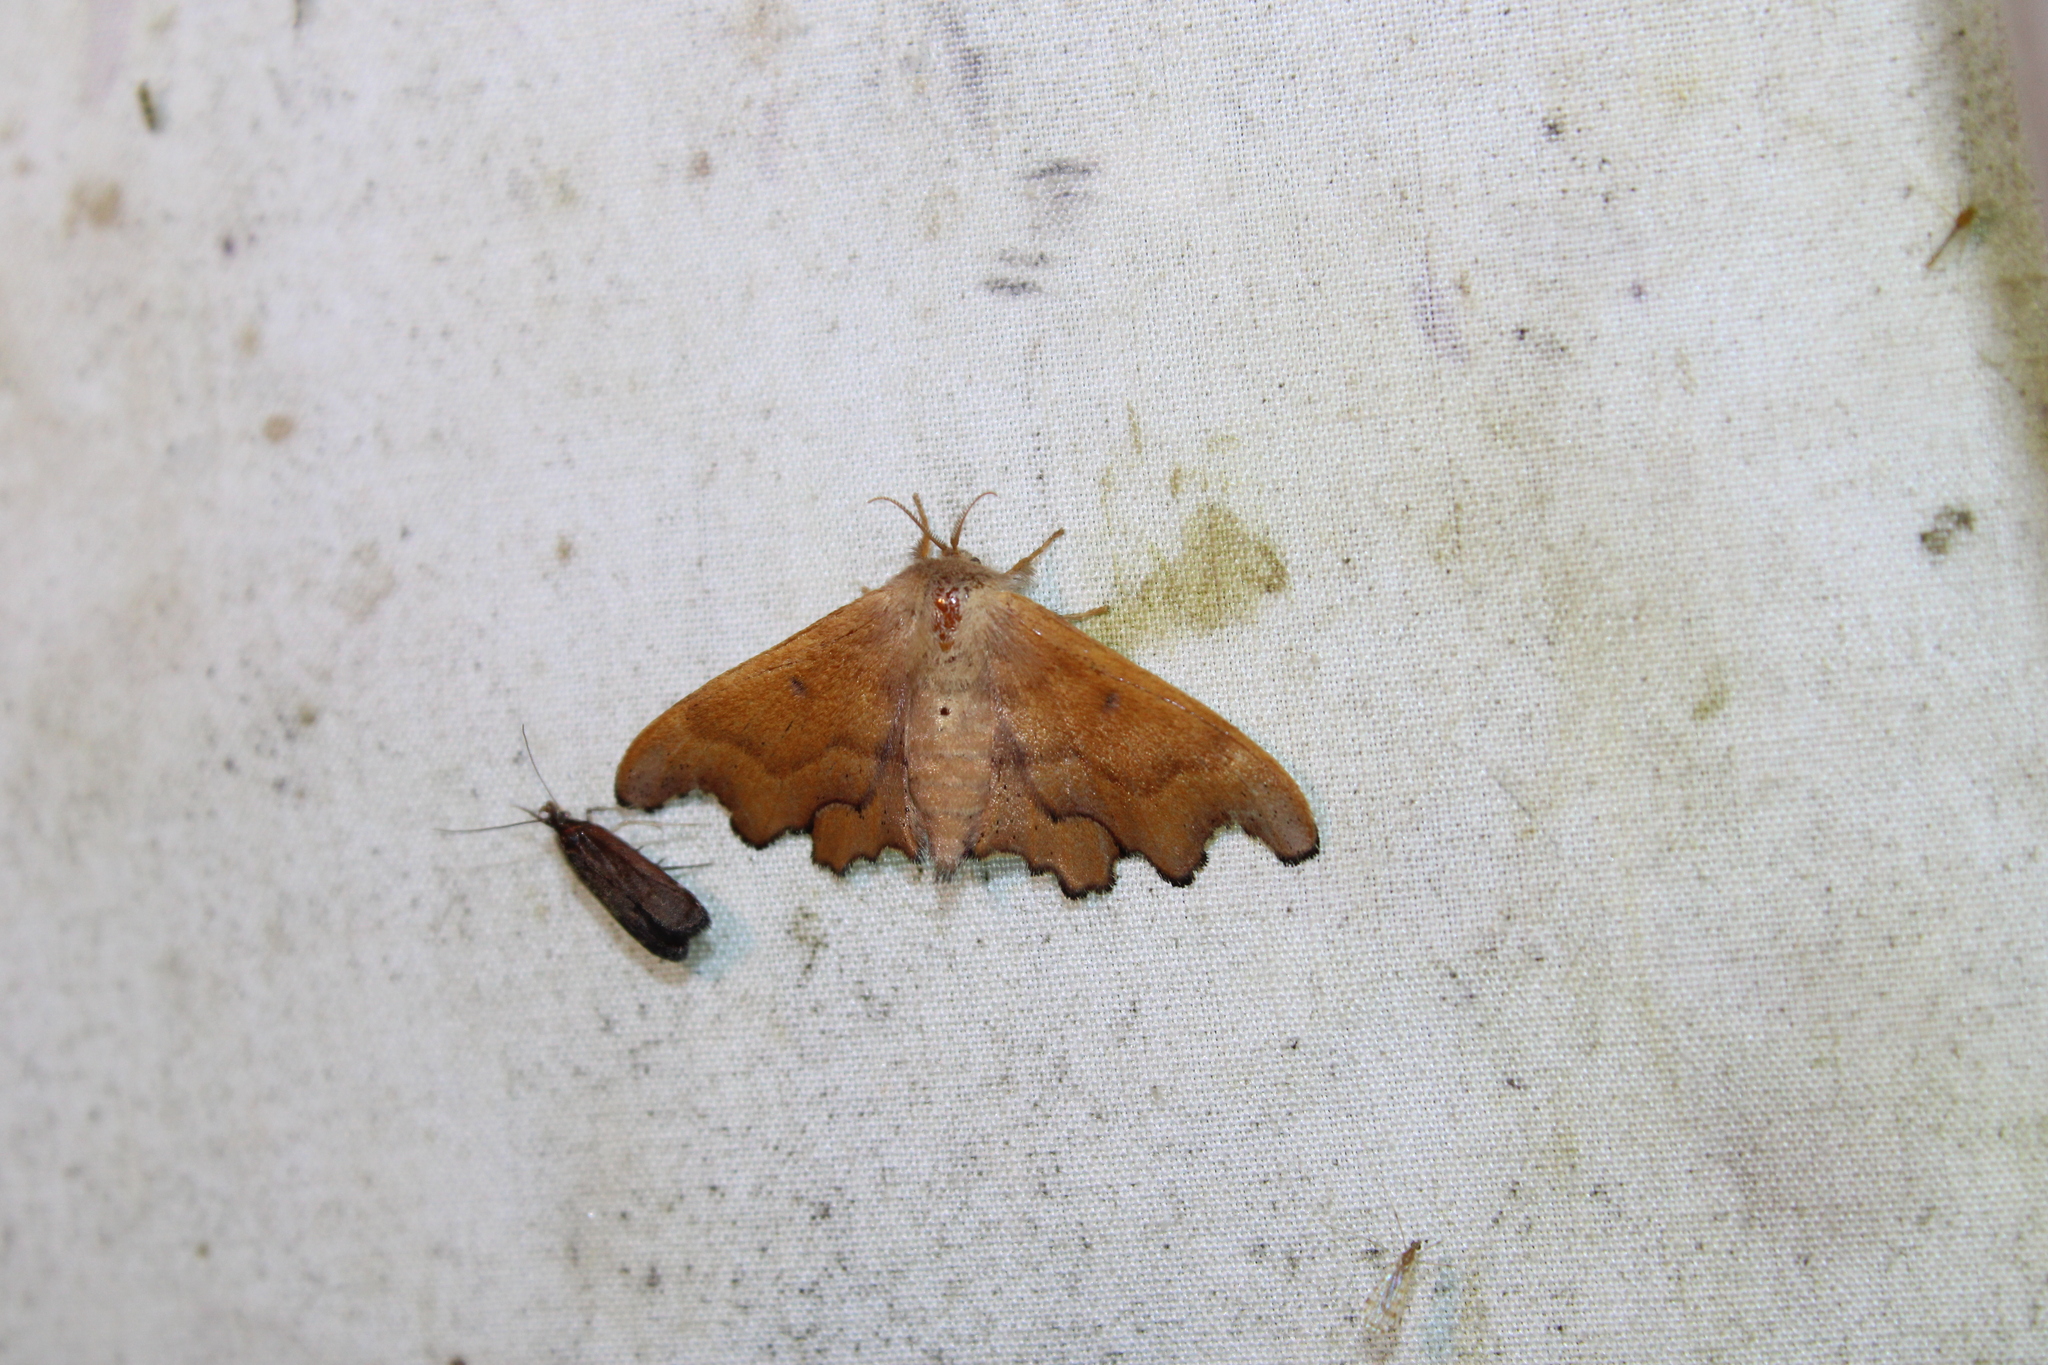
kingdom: Animalia
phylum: Arthropoda
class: Insecta
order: Lepidoptera
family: Mimallonidae
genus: Lacosoma
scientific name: Lacosoma chiridota
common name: Scalloped sack-bearer moth
